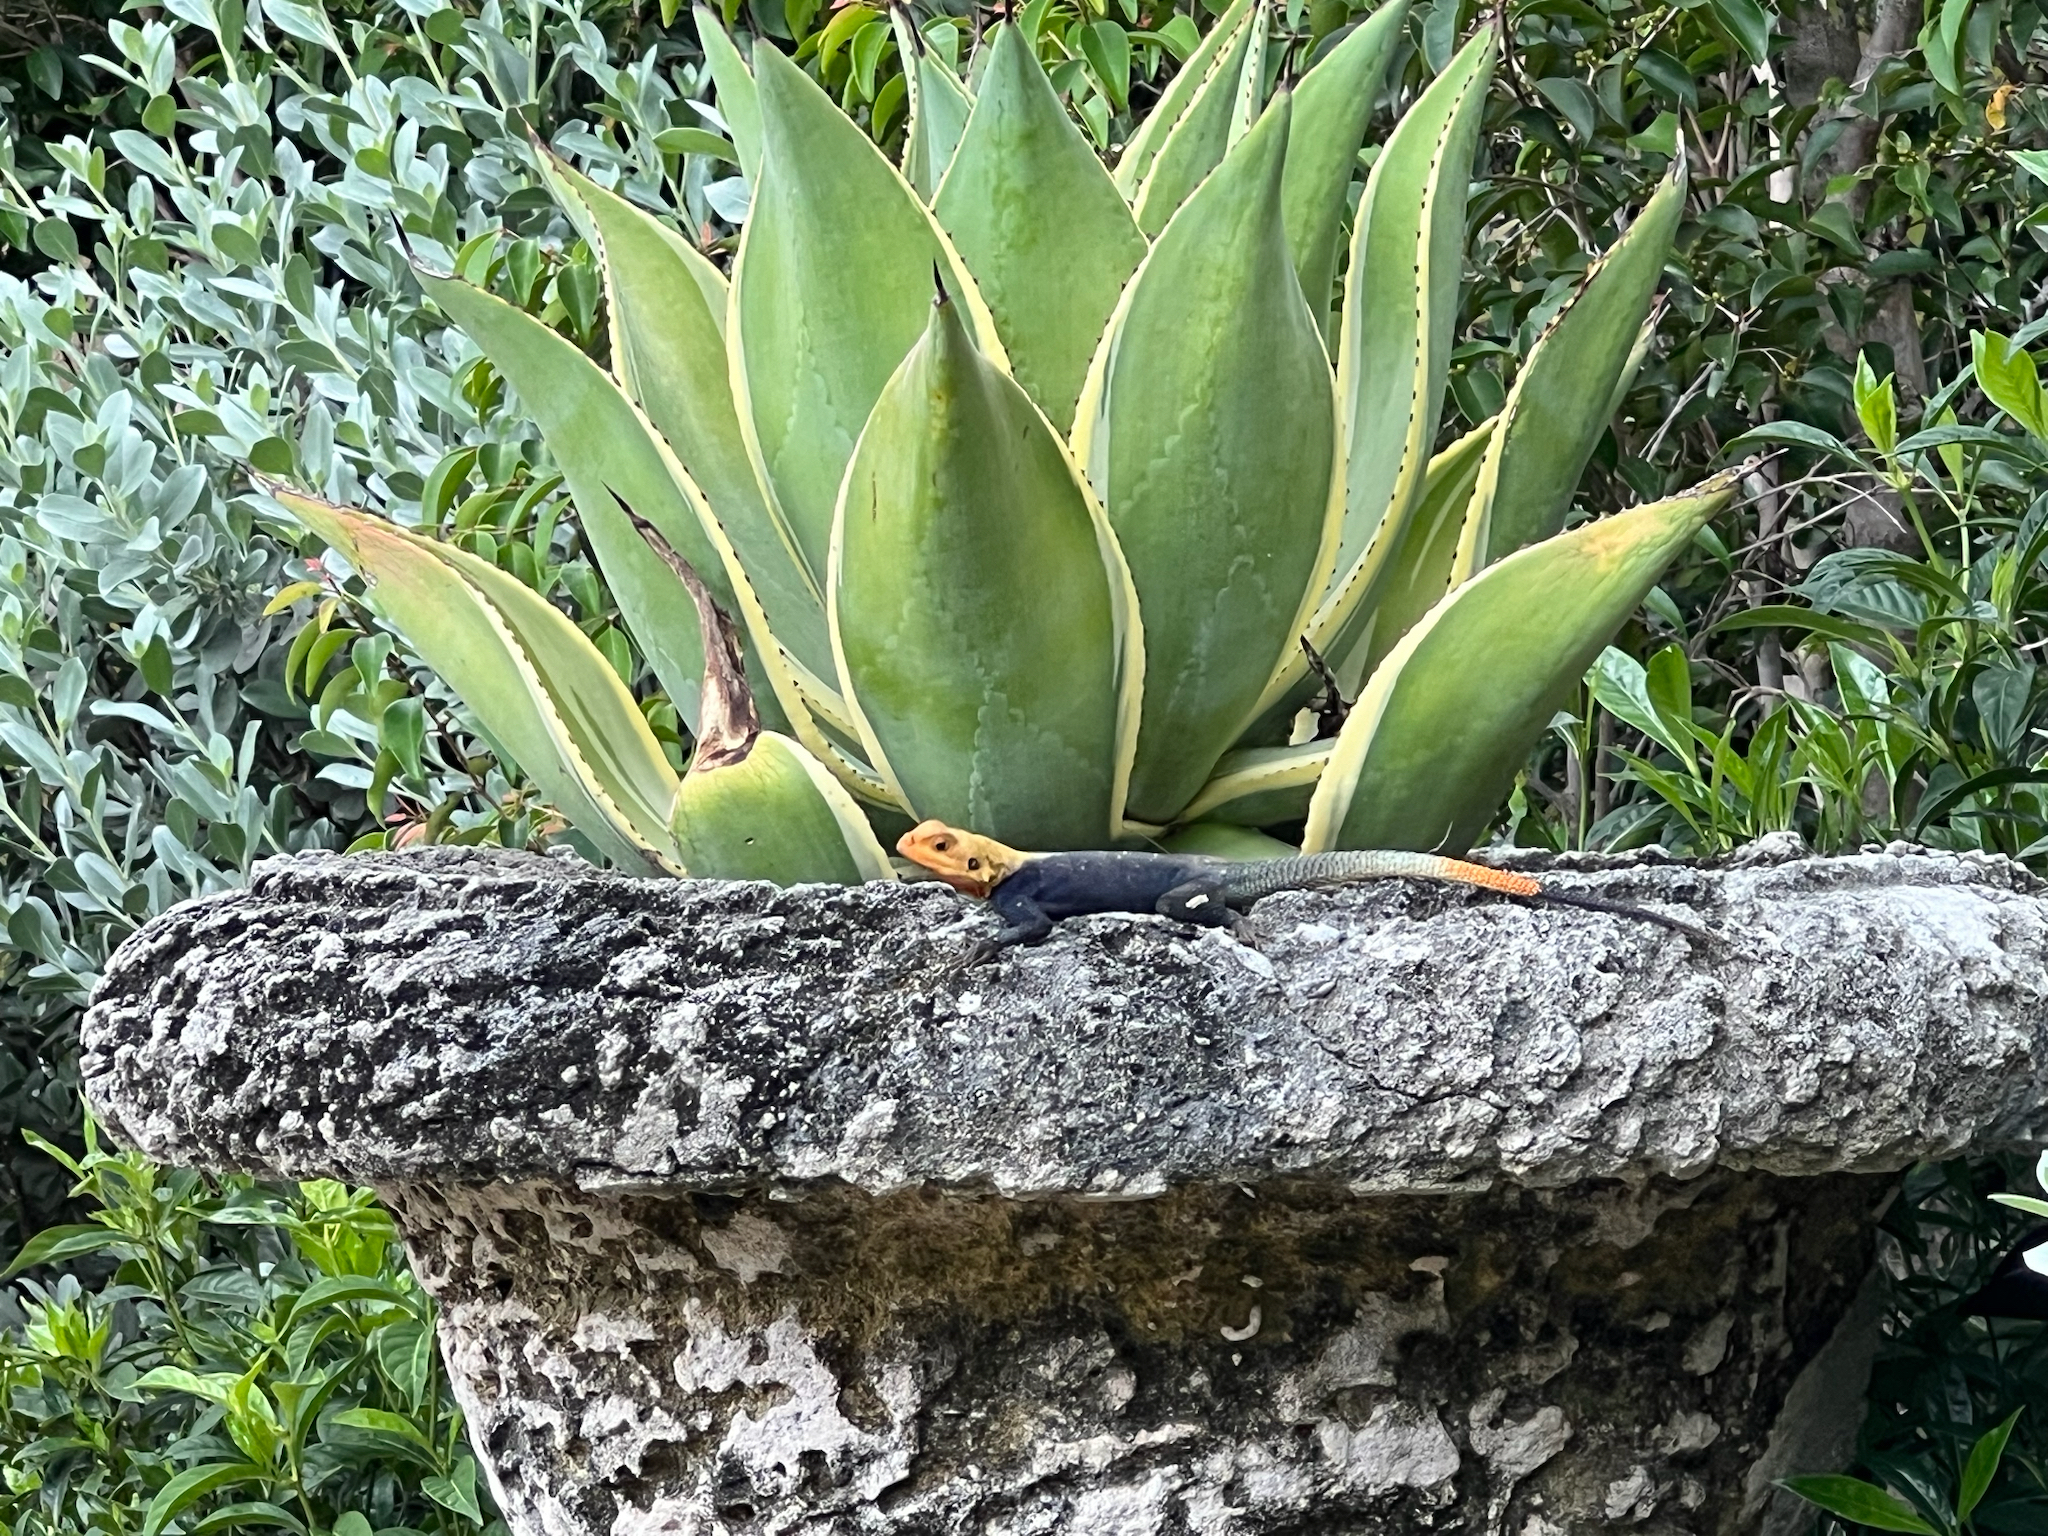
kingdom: Animalia
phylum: Chordata
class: Squamata
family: Agamidae
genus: Agama
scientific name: Agama picticauda
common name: Red-headed agama
